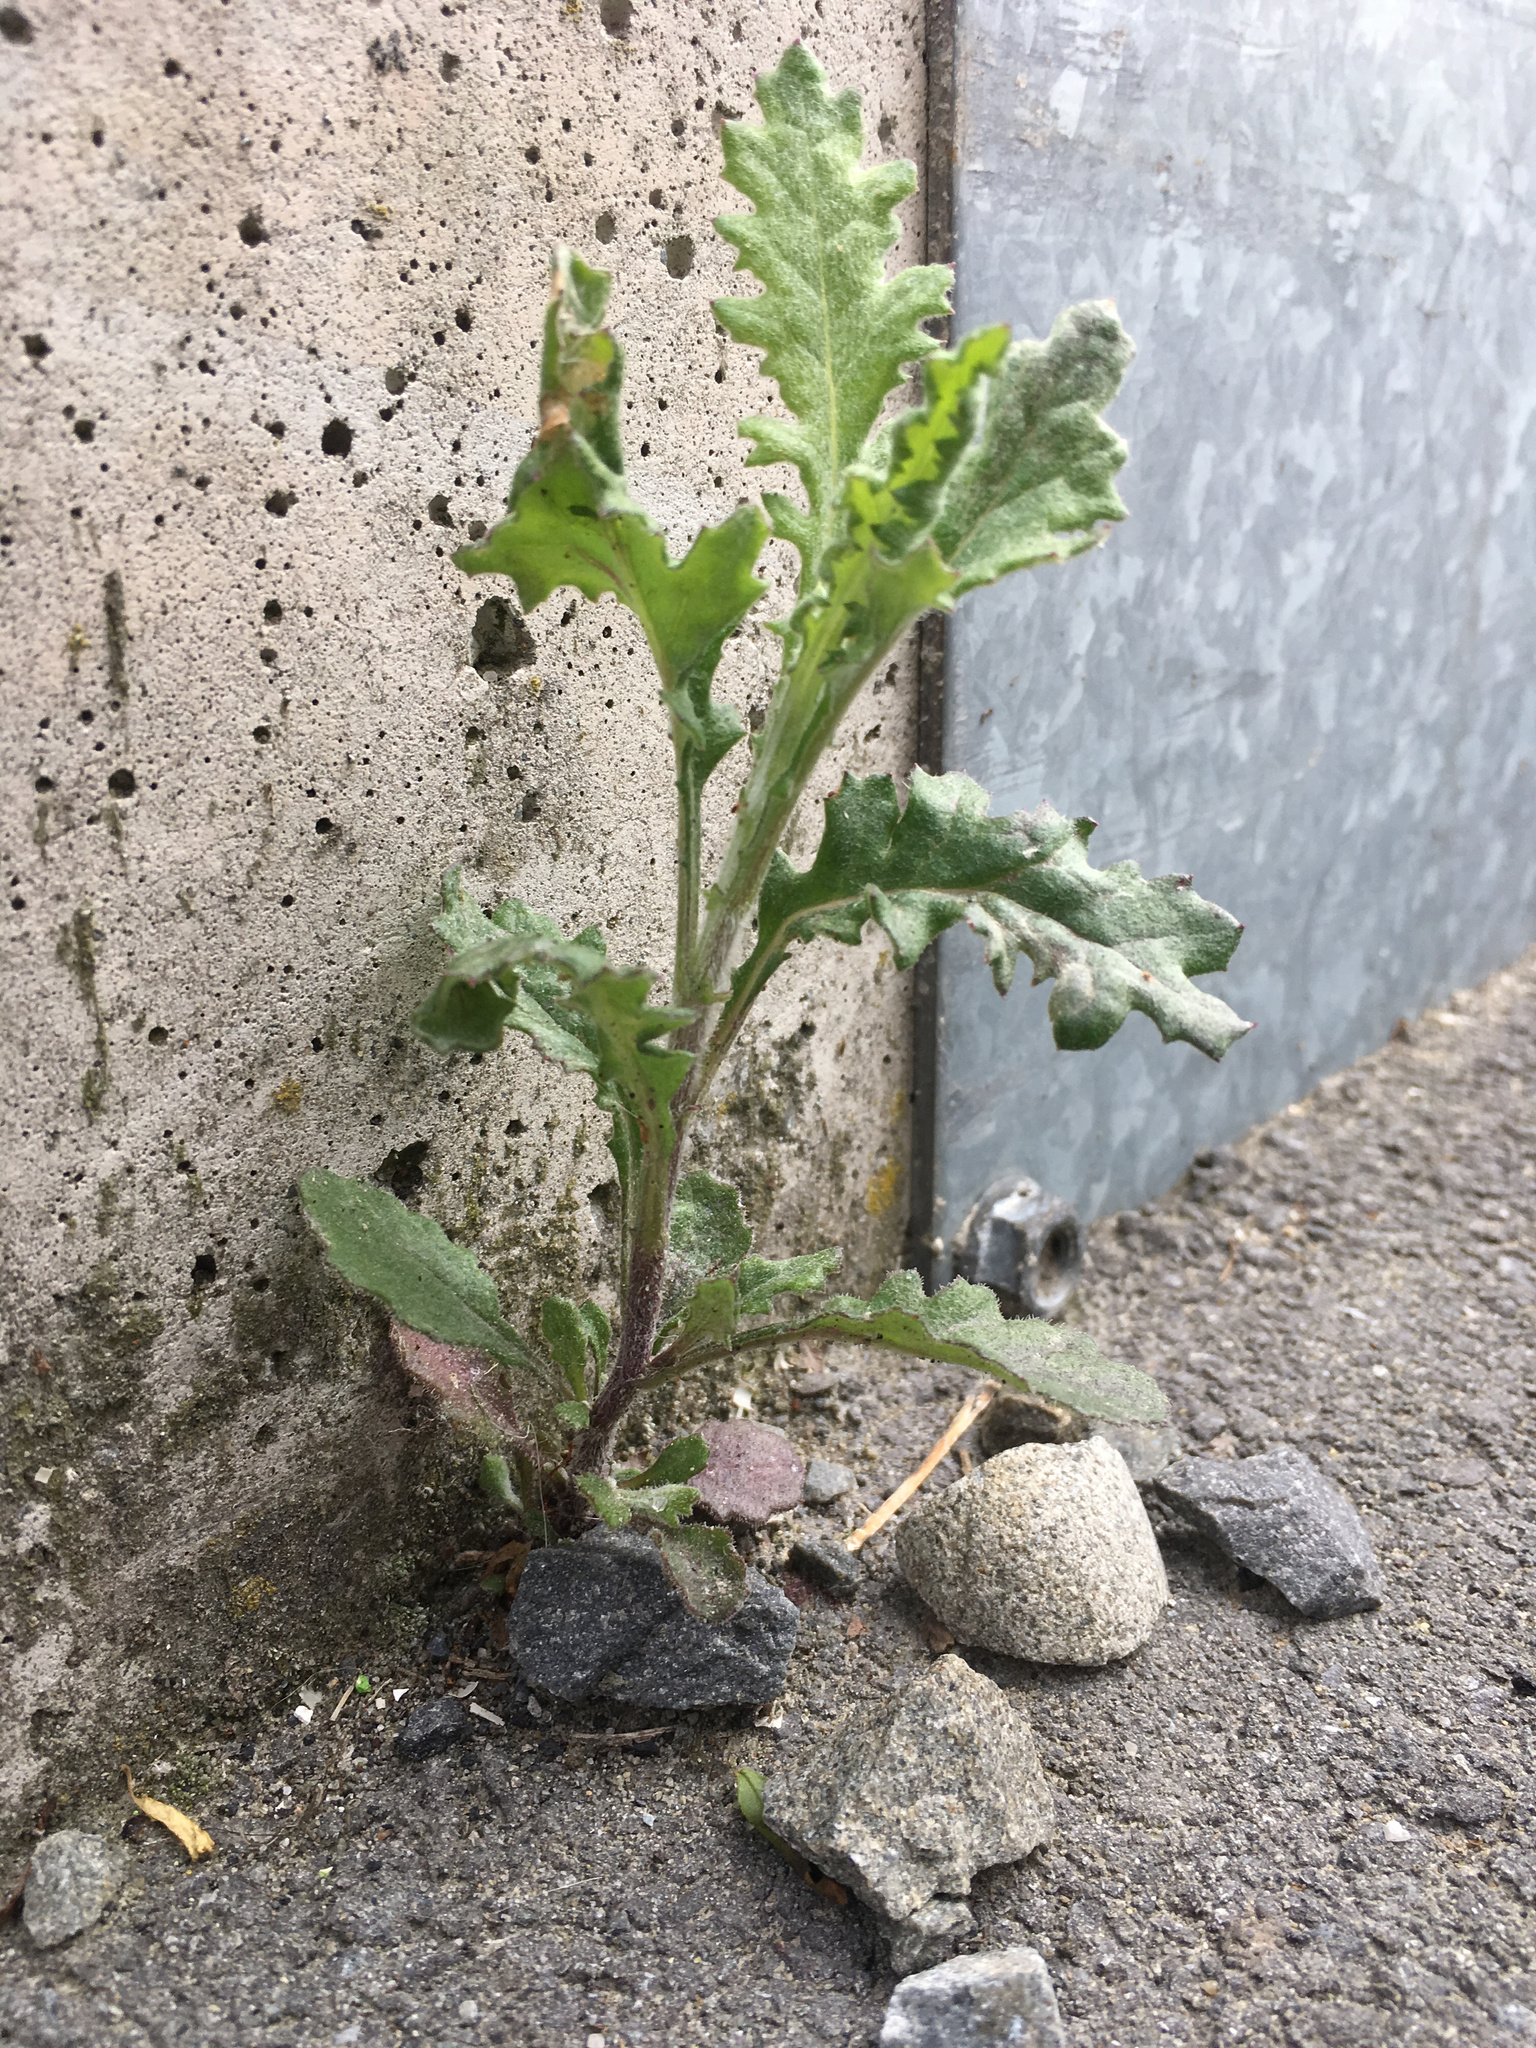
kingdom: Plantae
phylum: Tracheophyta
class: Magnoliopsida
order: Asterales
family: Asteraceae
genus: Senecio
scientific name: Senecio glomeratus
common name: Cutleaf burnweed
